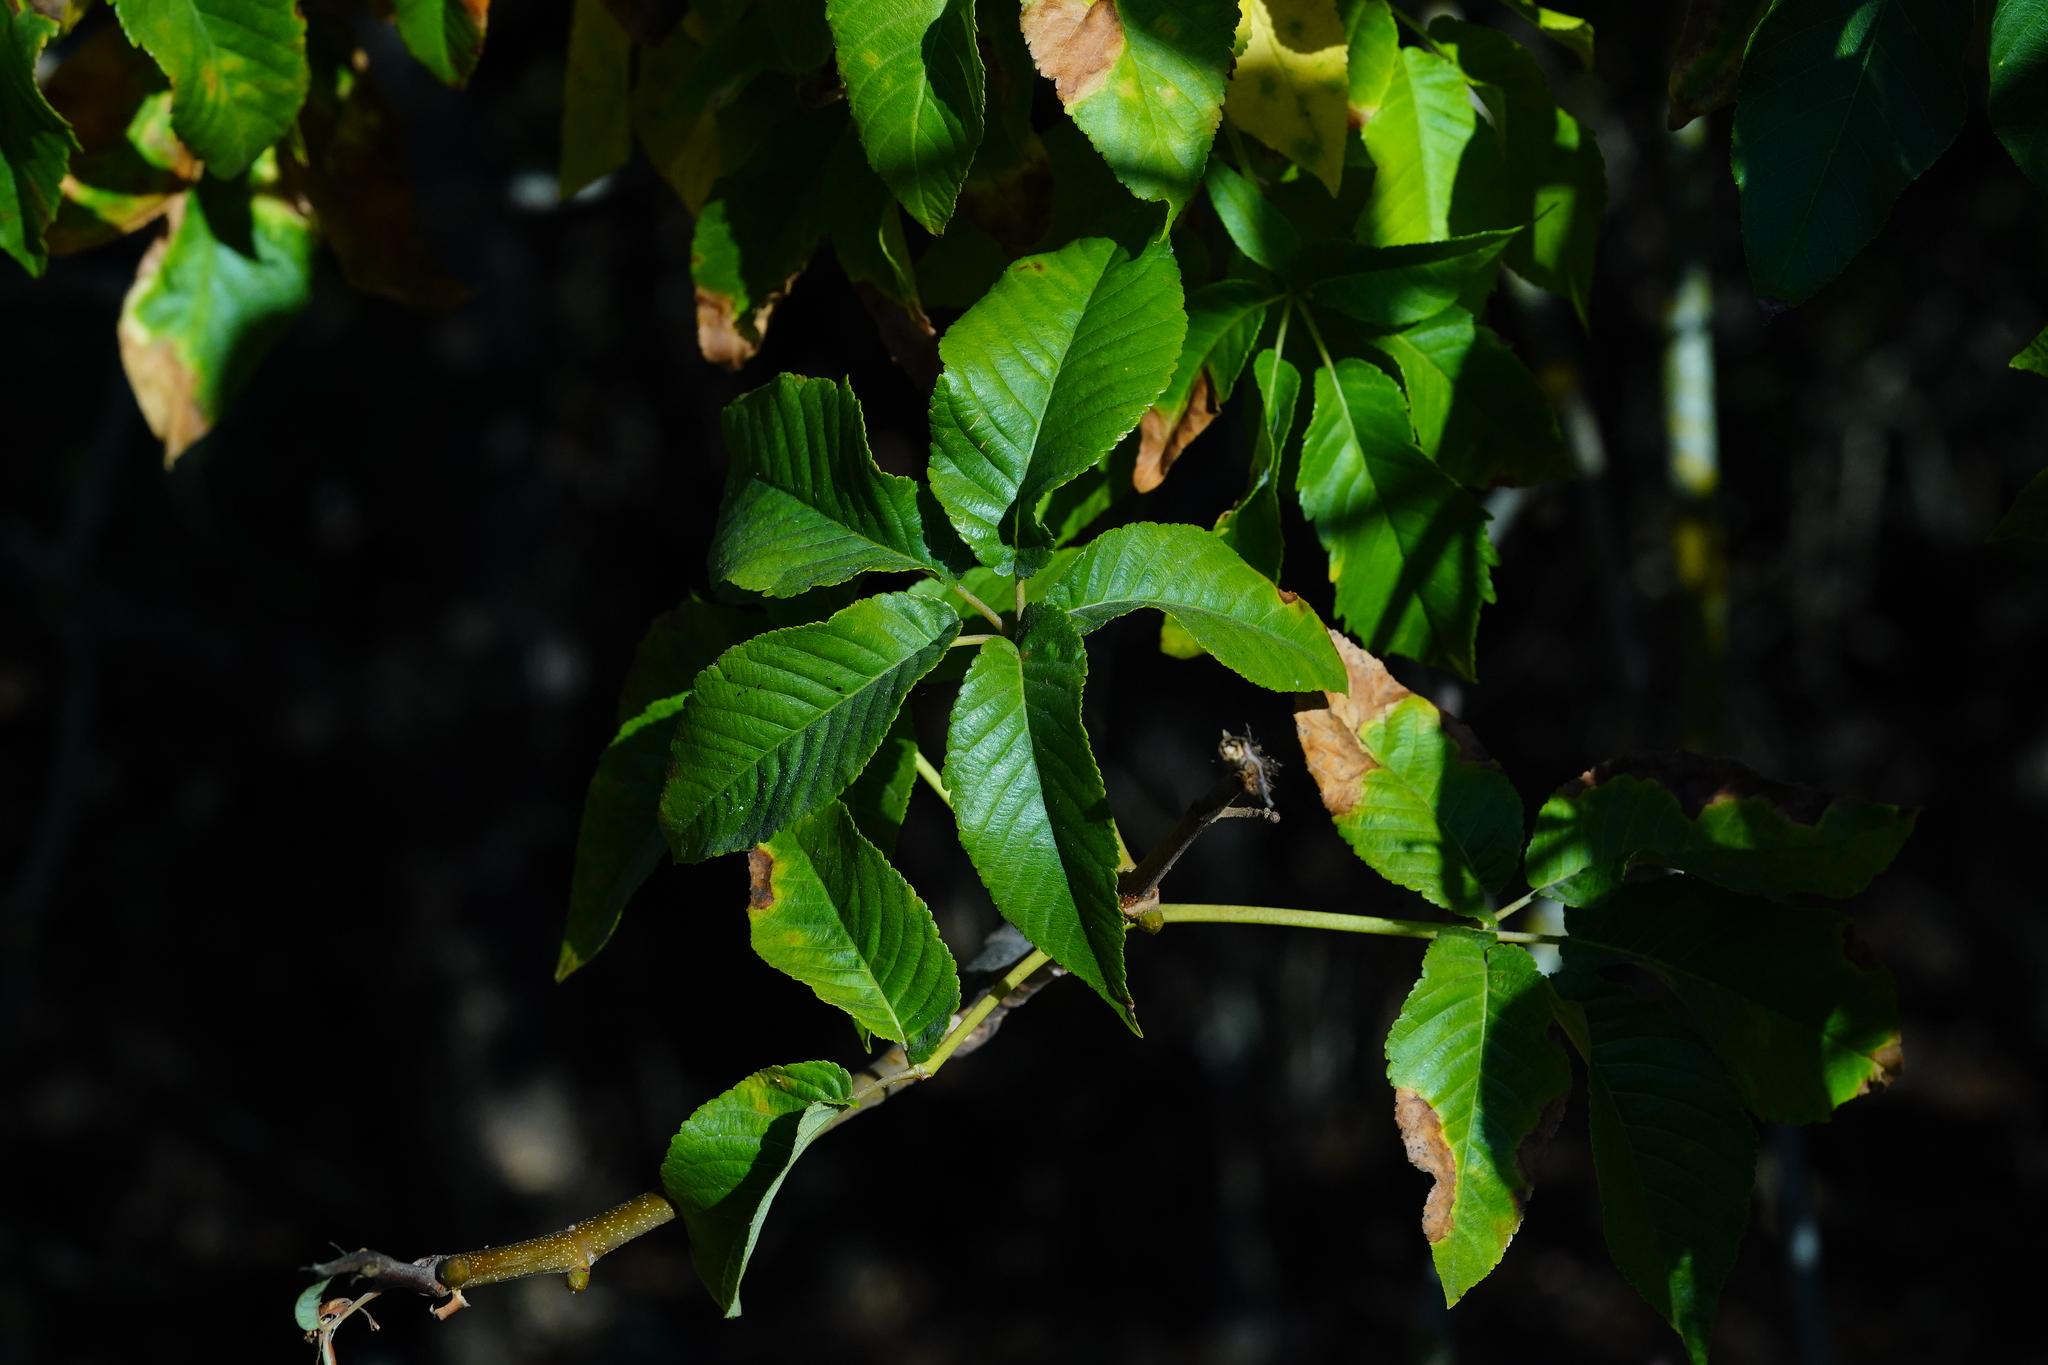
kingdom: Plantae
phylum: Tracheophyta
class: Magnoliopsida
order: Sapindales
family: Sapindaceae
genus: Aesculus
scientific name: Aesculus californica
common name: California buckeye
